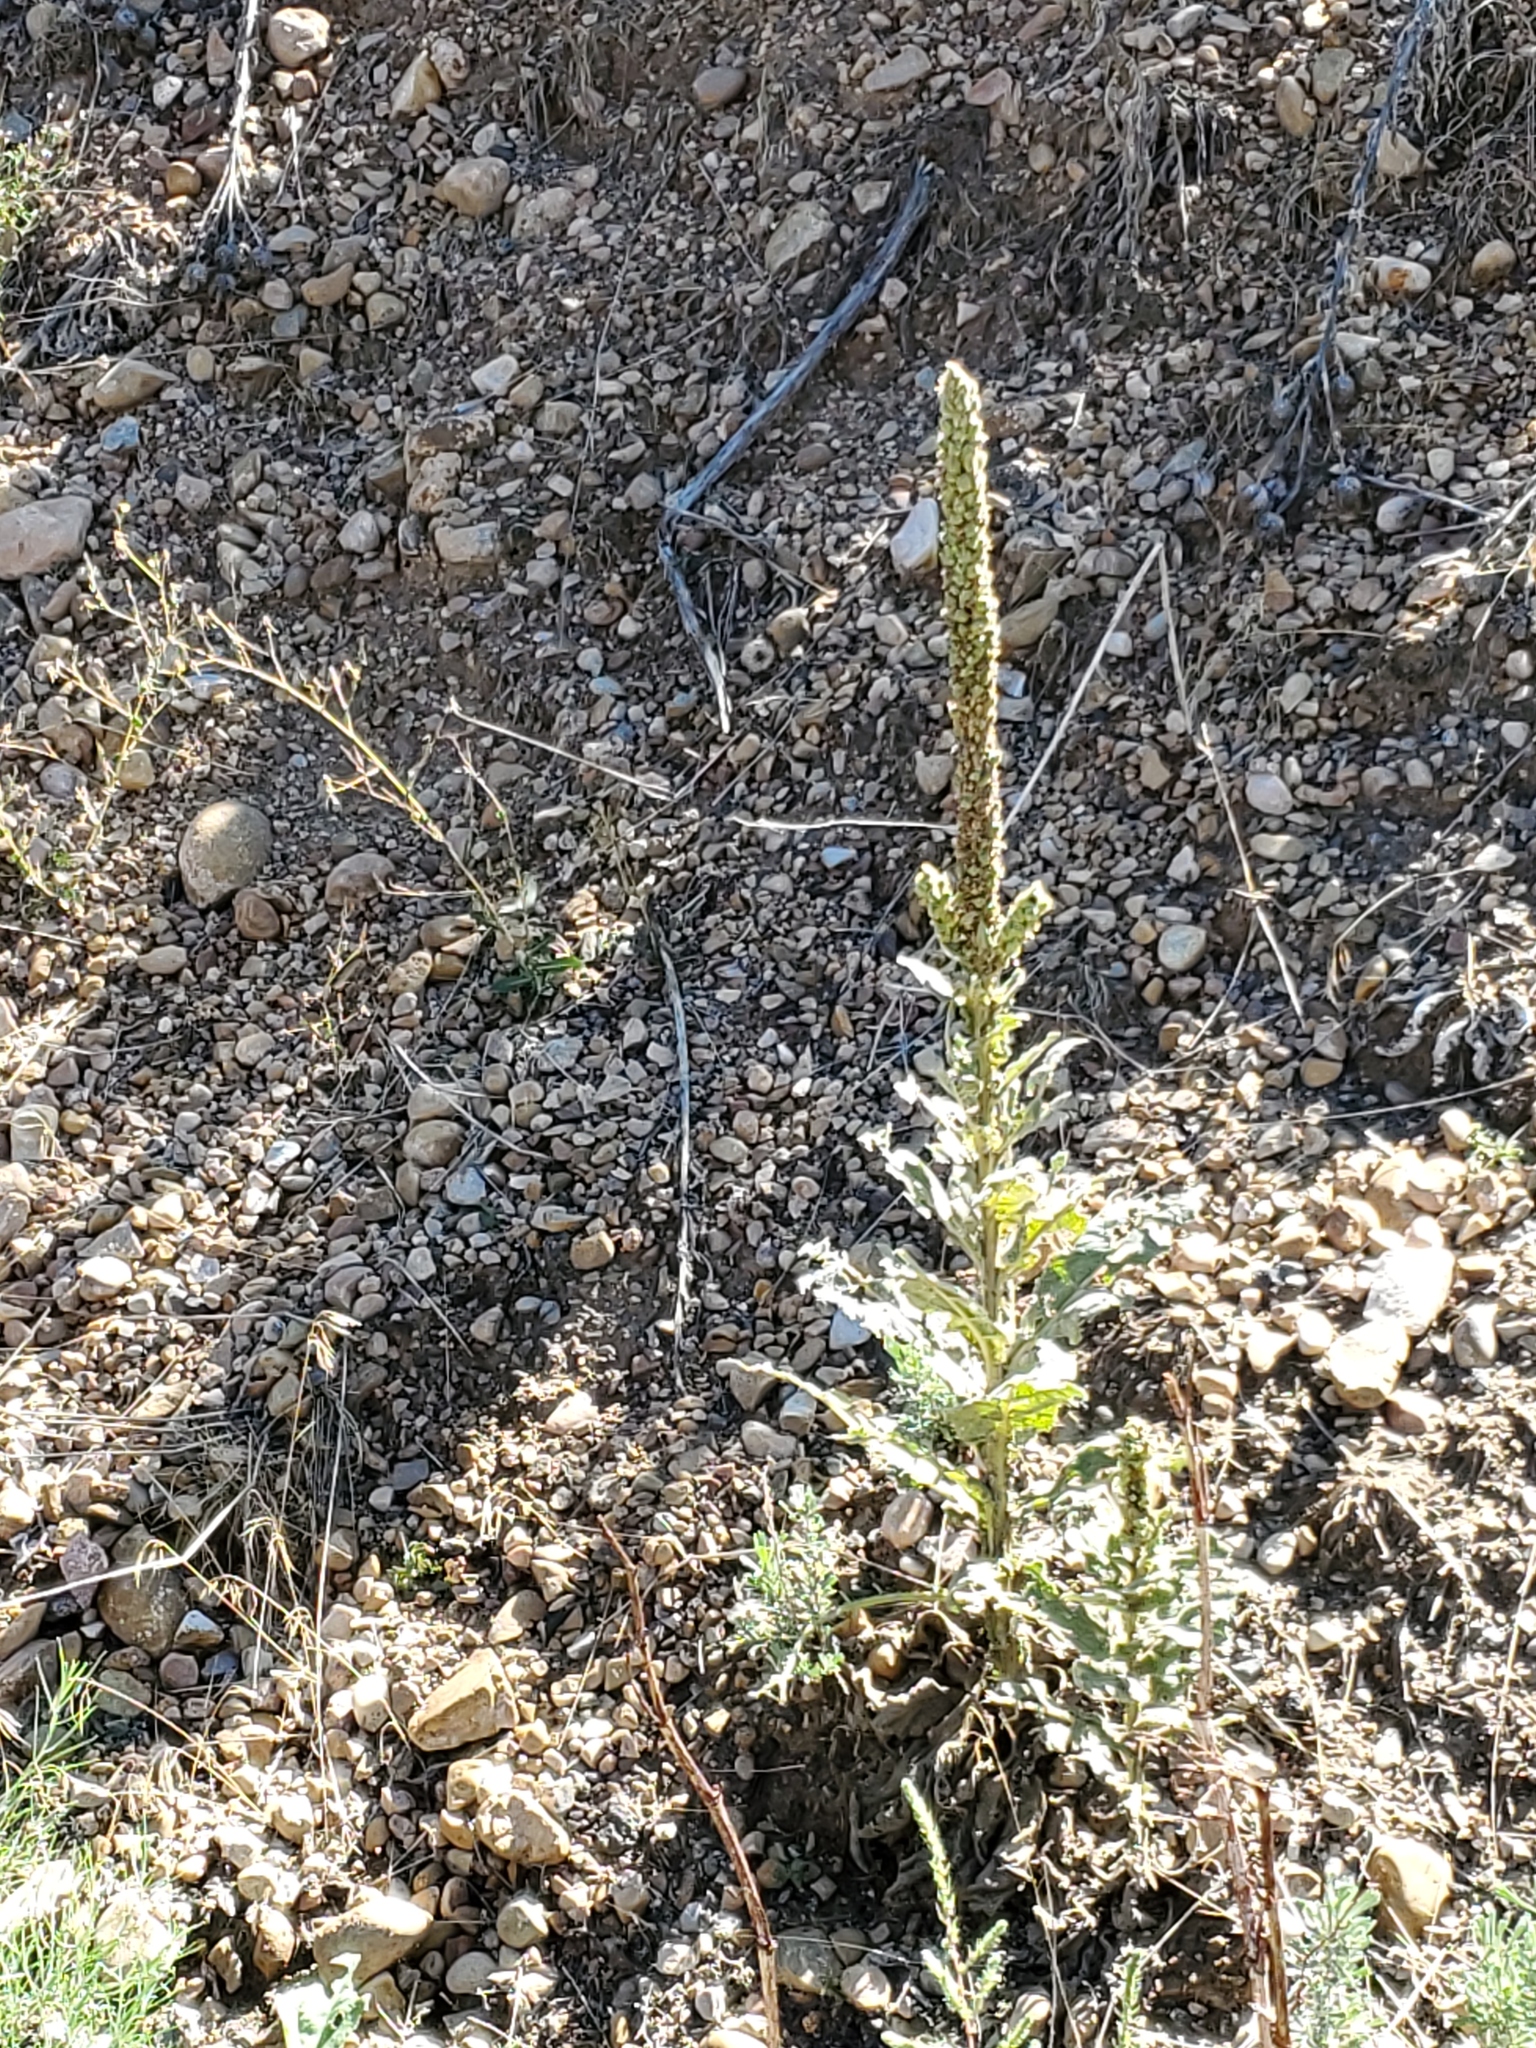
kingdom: Plantae
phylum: Tracheophyta
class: Magnoliopsida
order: Lamiales
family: Scrophulariaceae
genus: Verbascum
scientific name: Verbascum thapsus
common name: Common mullein
